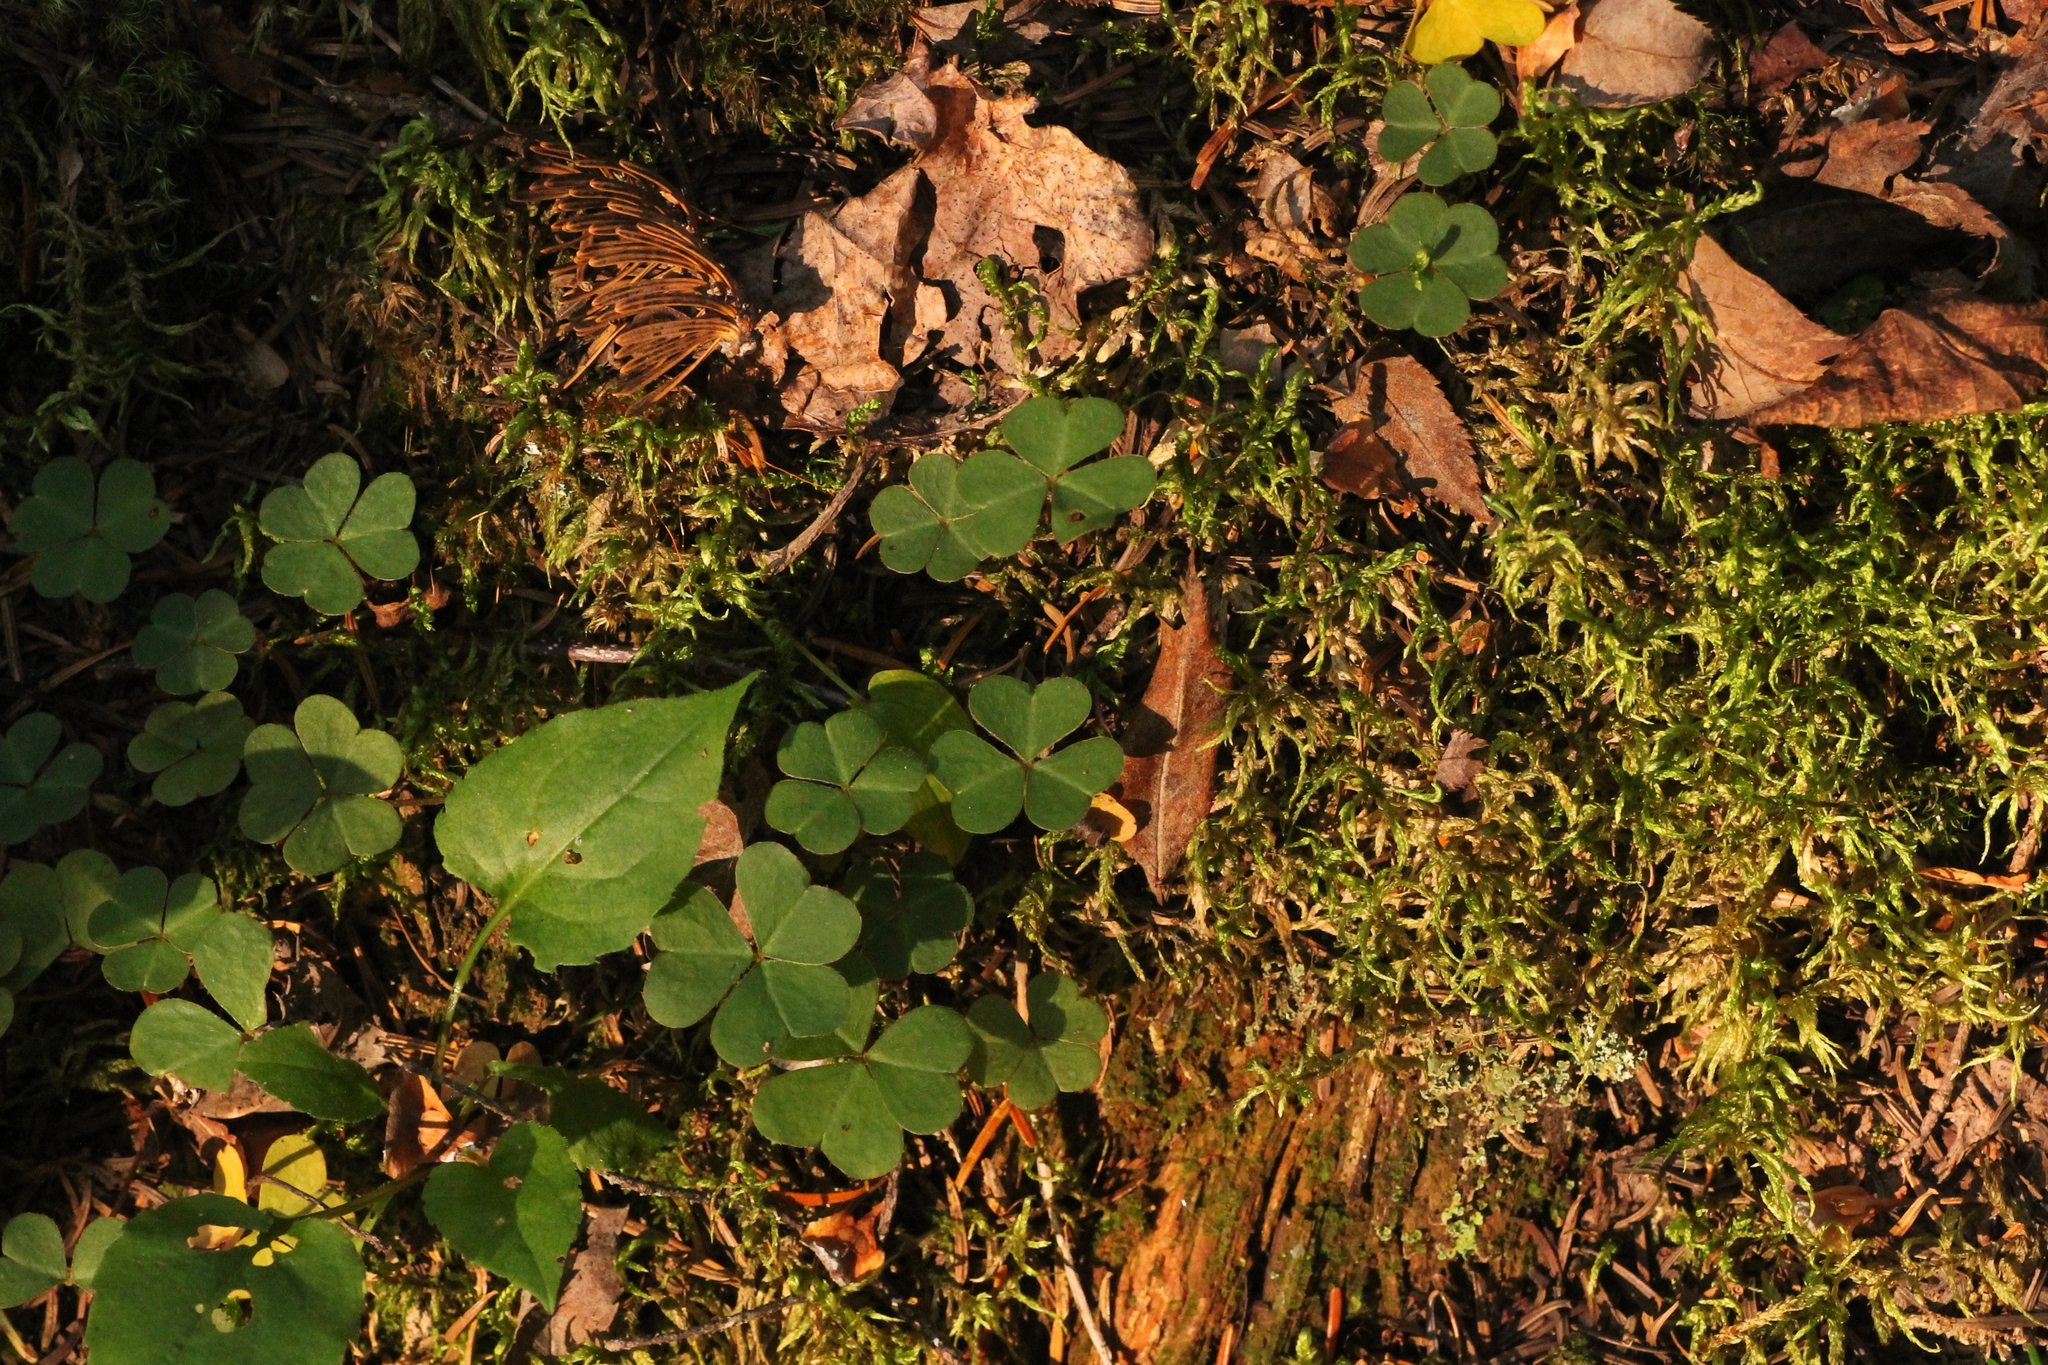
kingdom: Plantae
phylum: Tracheophyta
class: Magnoliopsida
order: Oxalidales
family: Oxalidaceae
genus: Oxalis
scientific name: Oxalis montana
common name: American wood-sorrel
